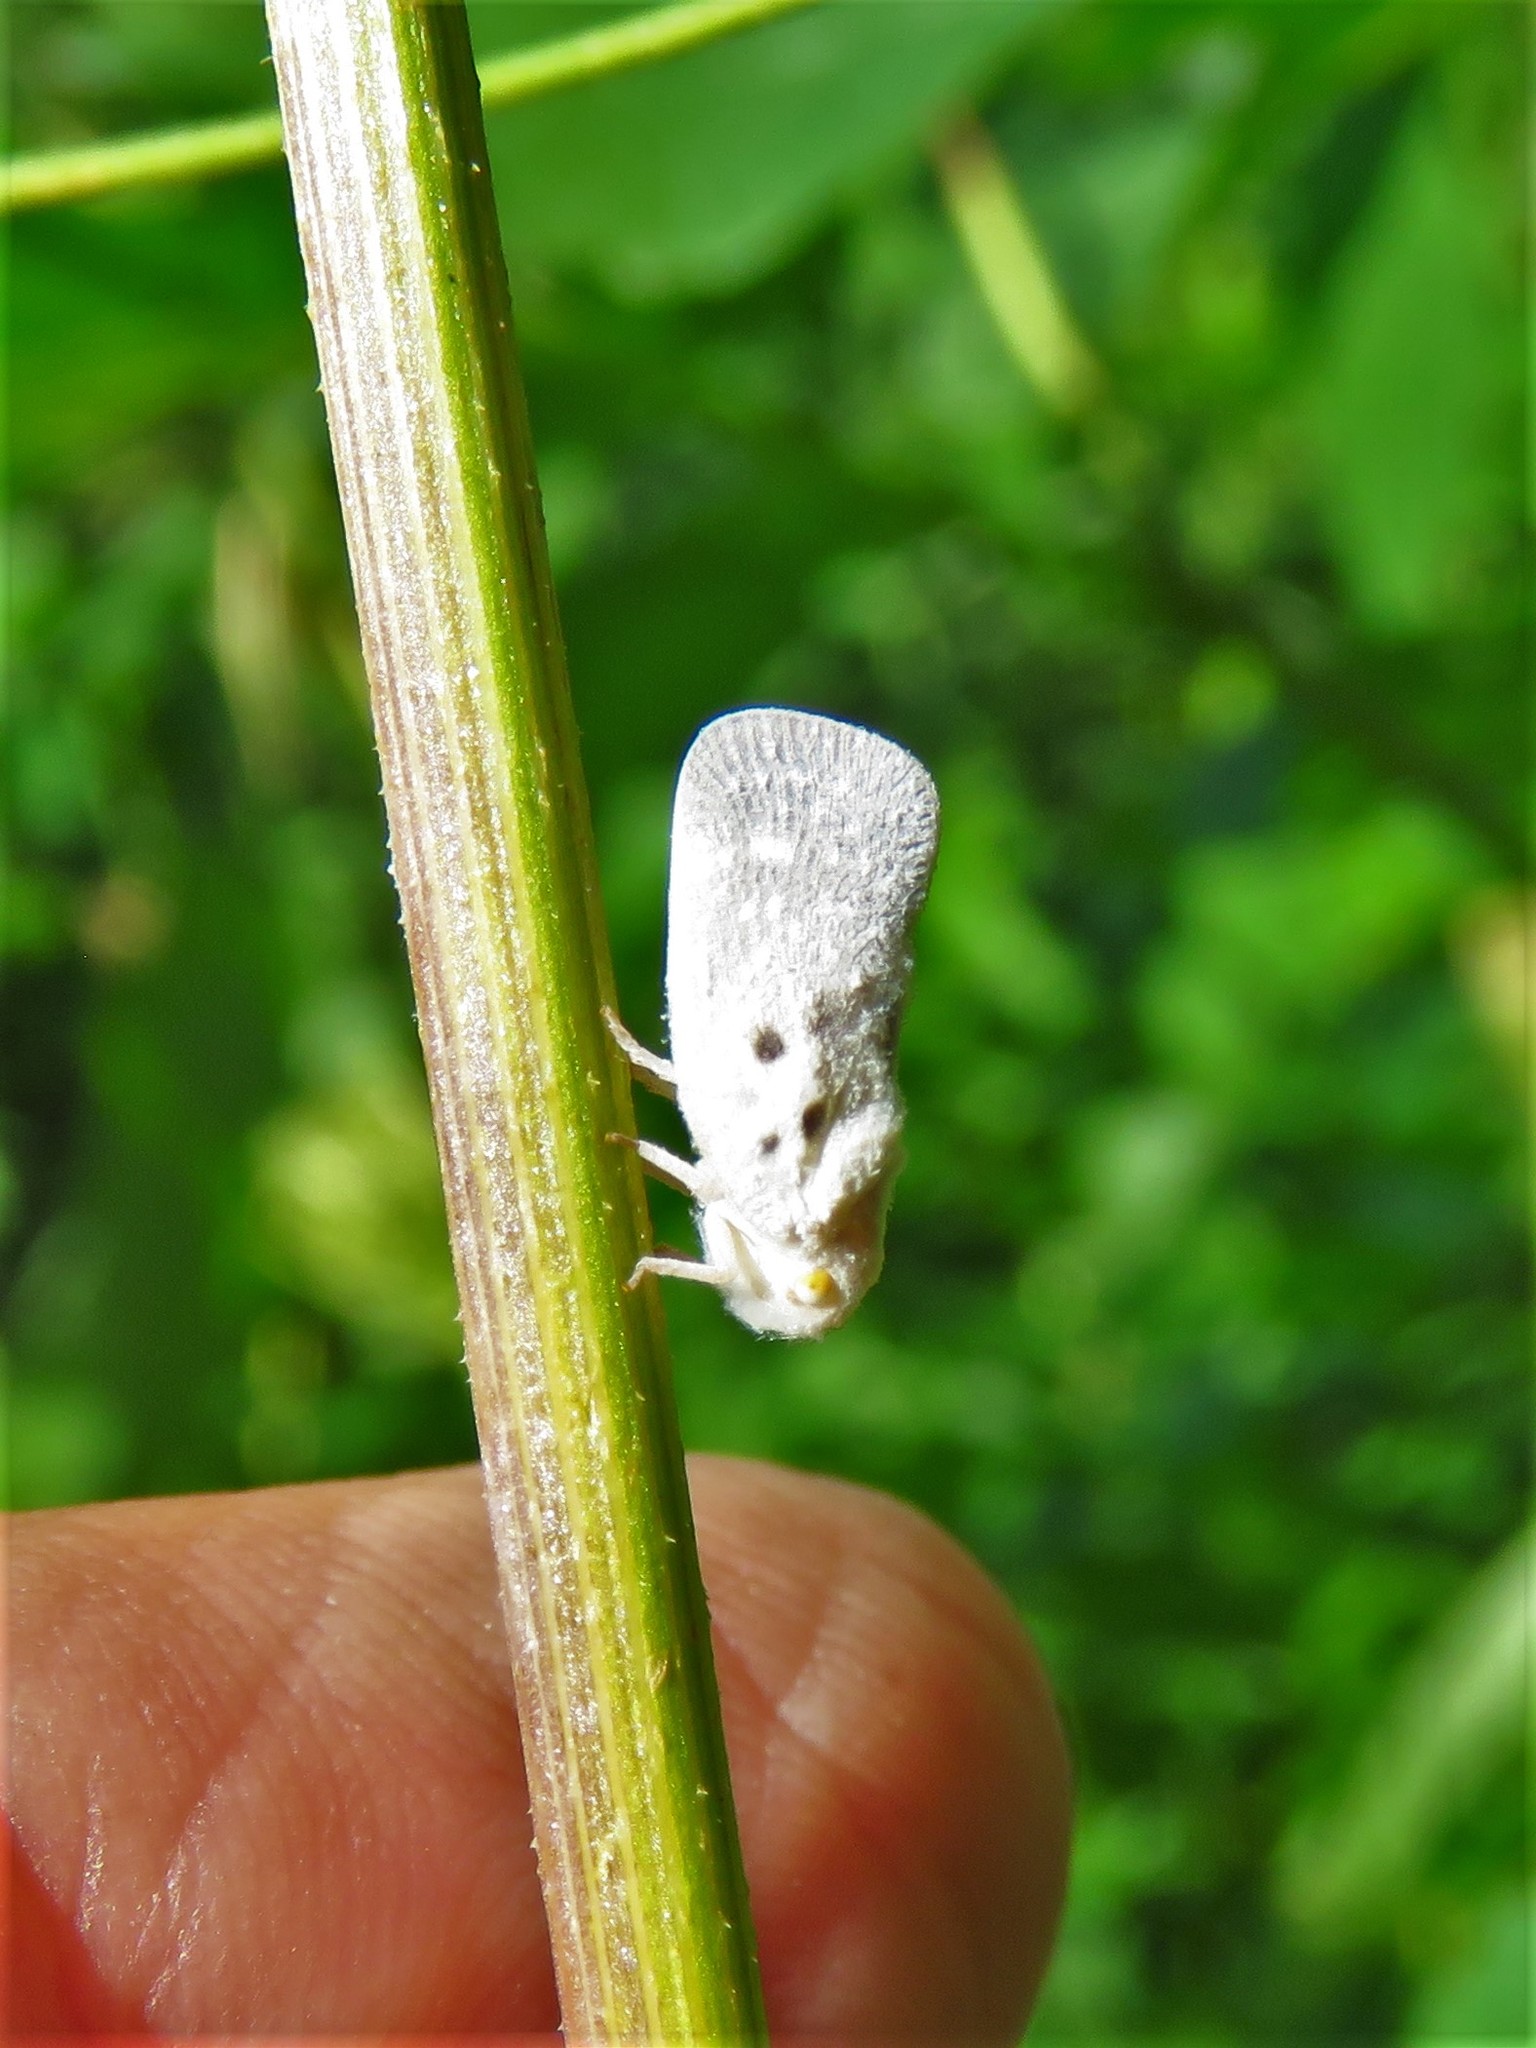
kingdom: Animalia
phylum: Arthropoda
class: Insecta
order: Hemiptera
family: Flatidae
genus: Metcalfa
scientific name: Metcalfa pruinosa
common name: Citrus flatid planthopper
